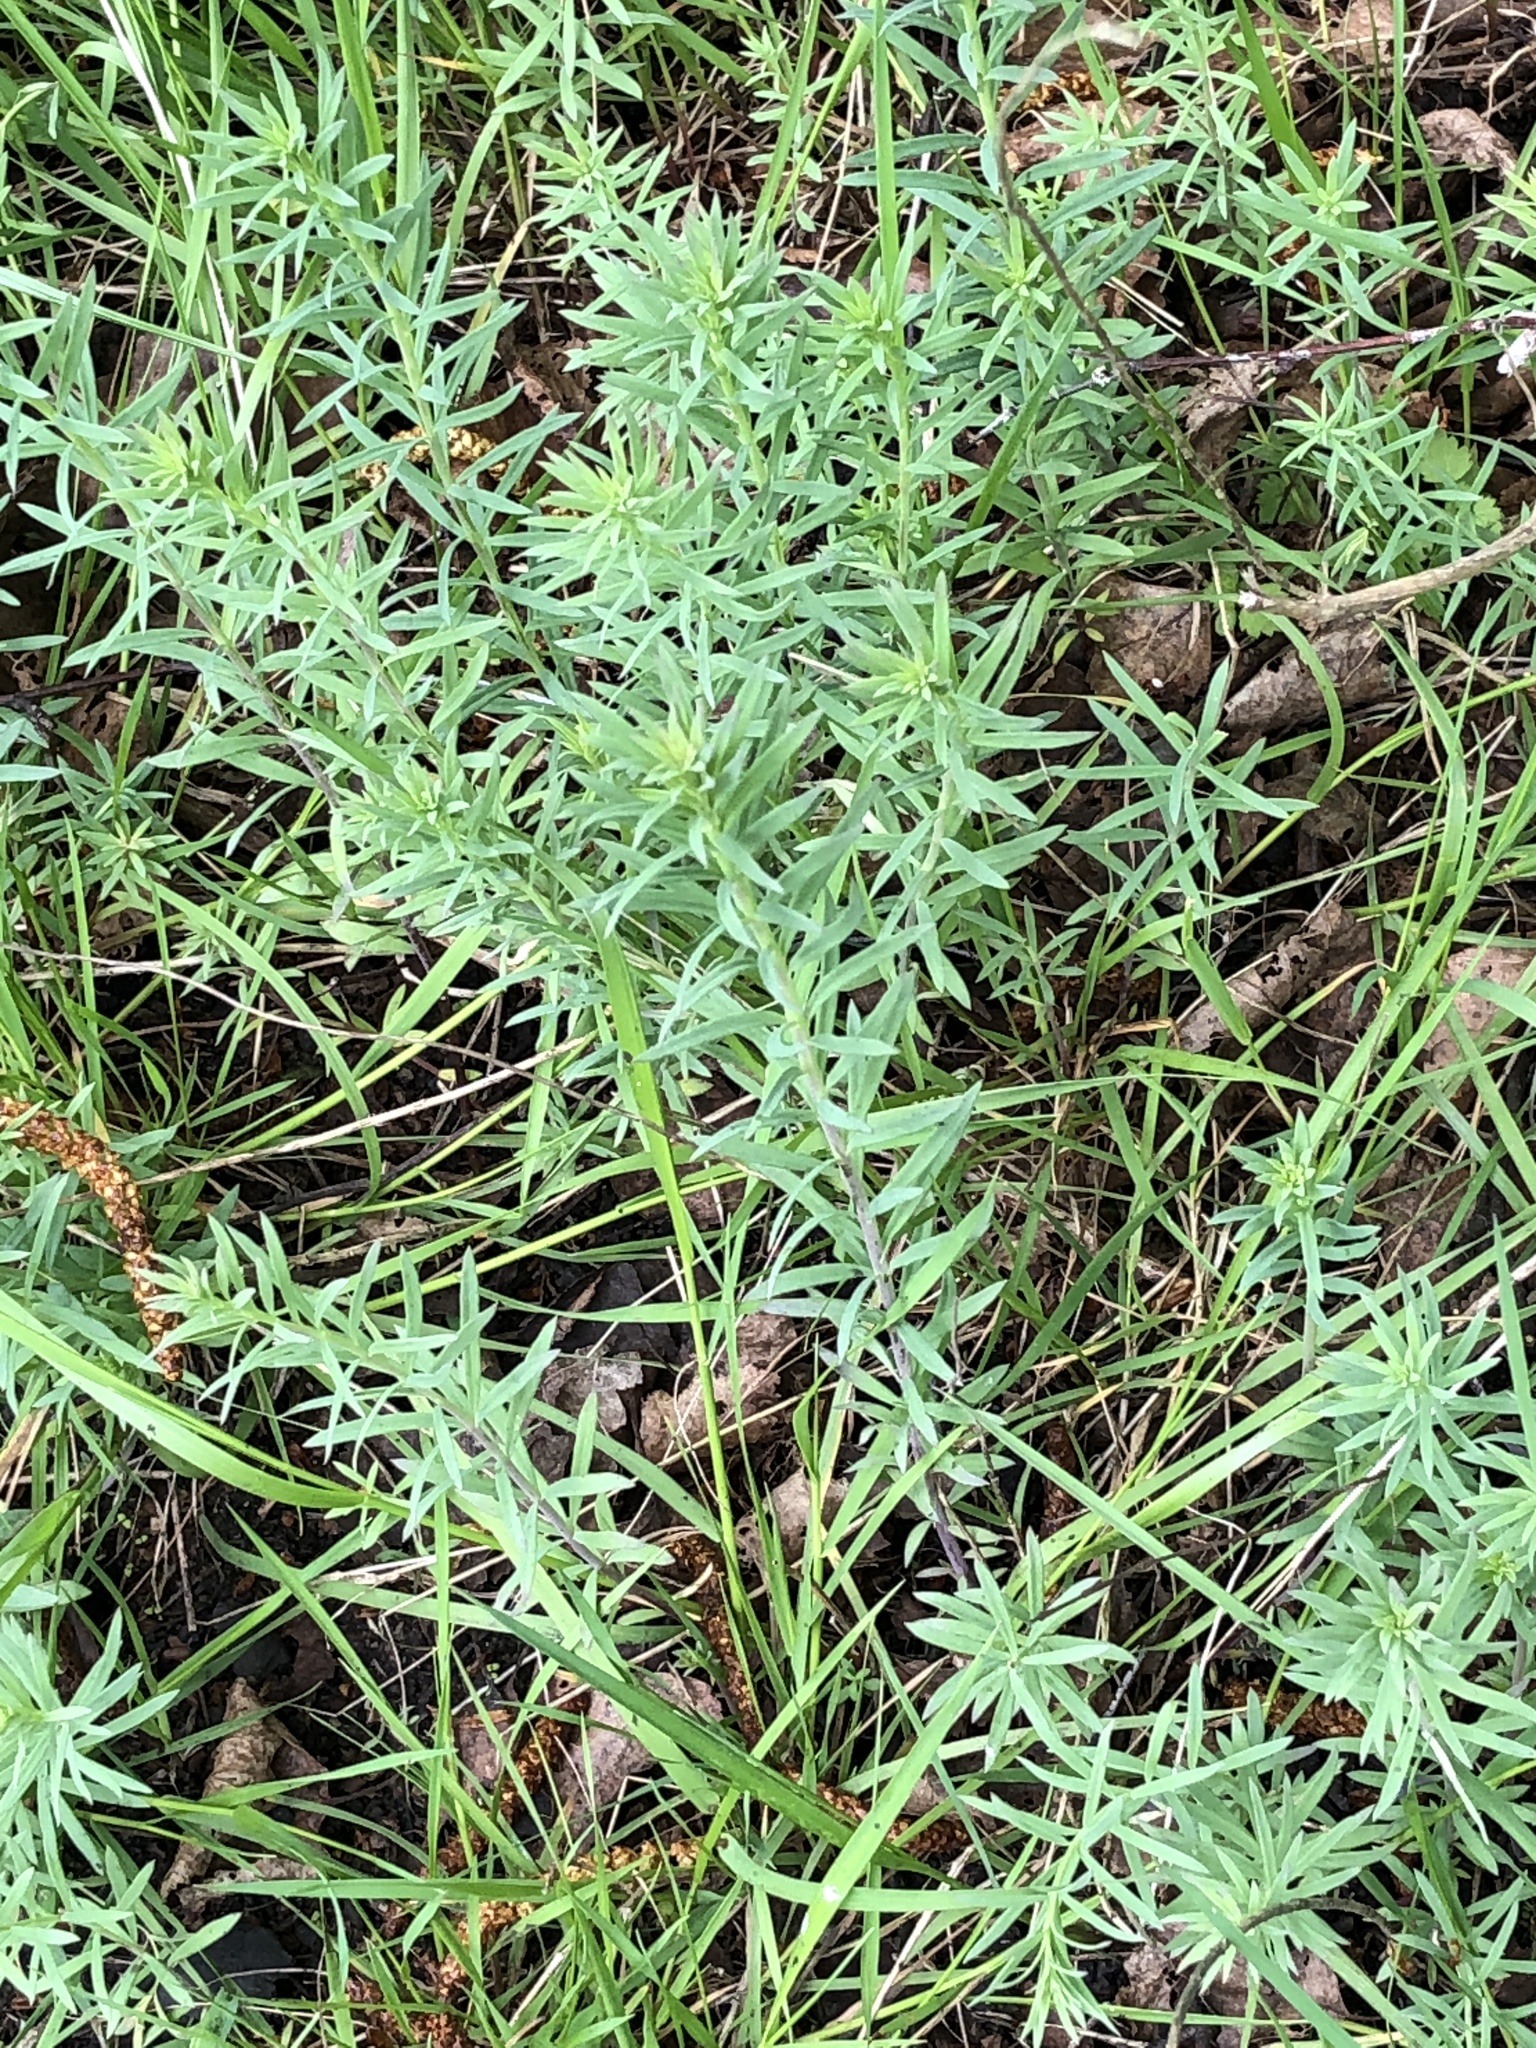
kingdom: Plantae
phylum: Tracheophyta
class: Magnoliopsida
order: Lamiales
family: Plantaginaceae
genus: Linaria
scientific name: Linaria vulgaris
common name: Butter and eggs
